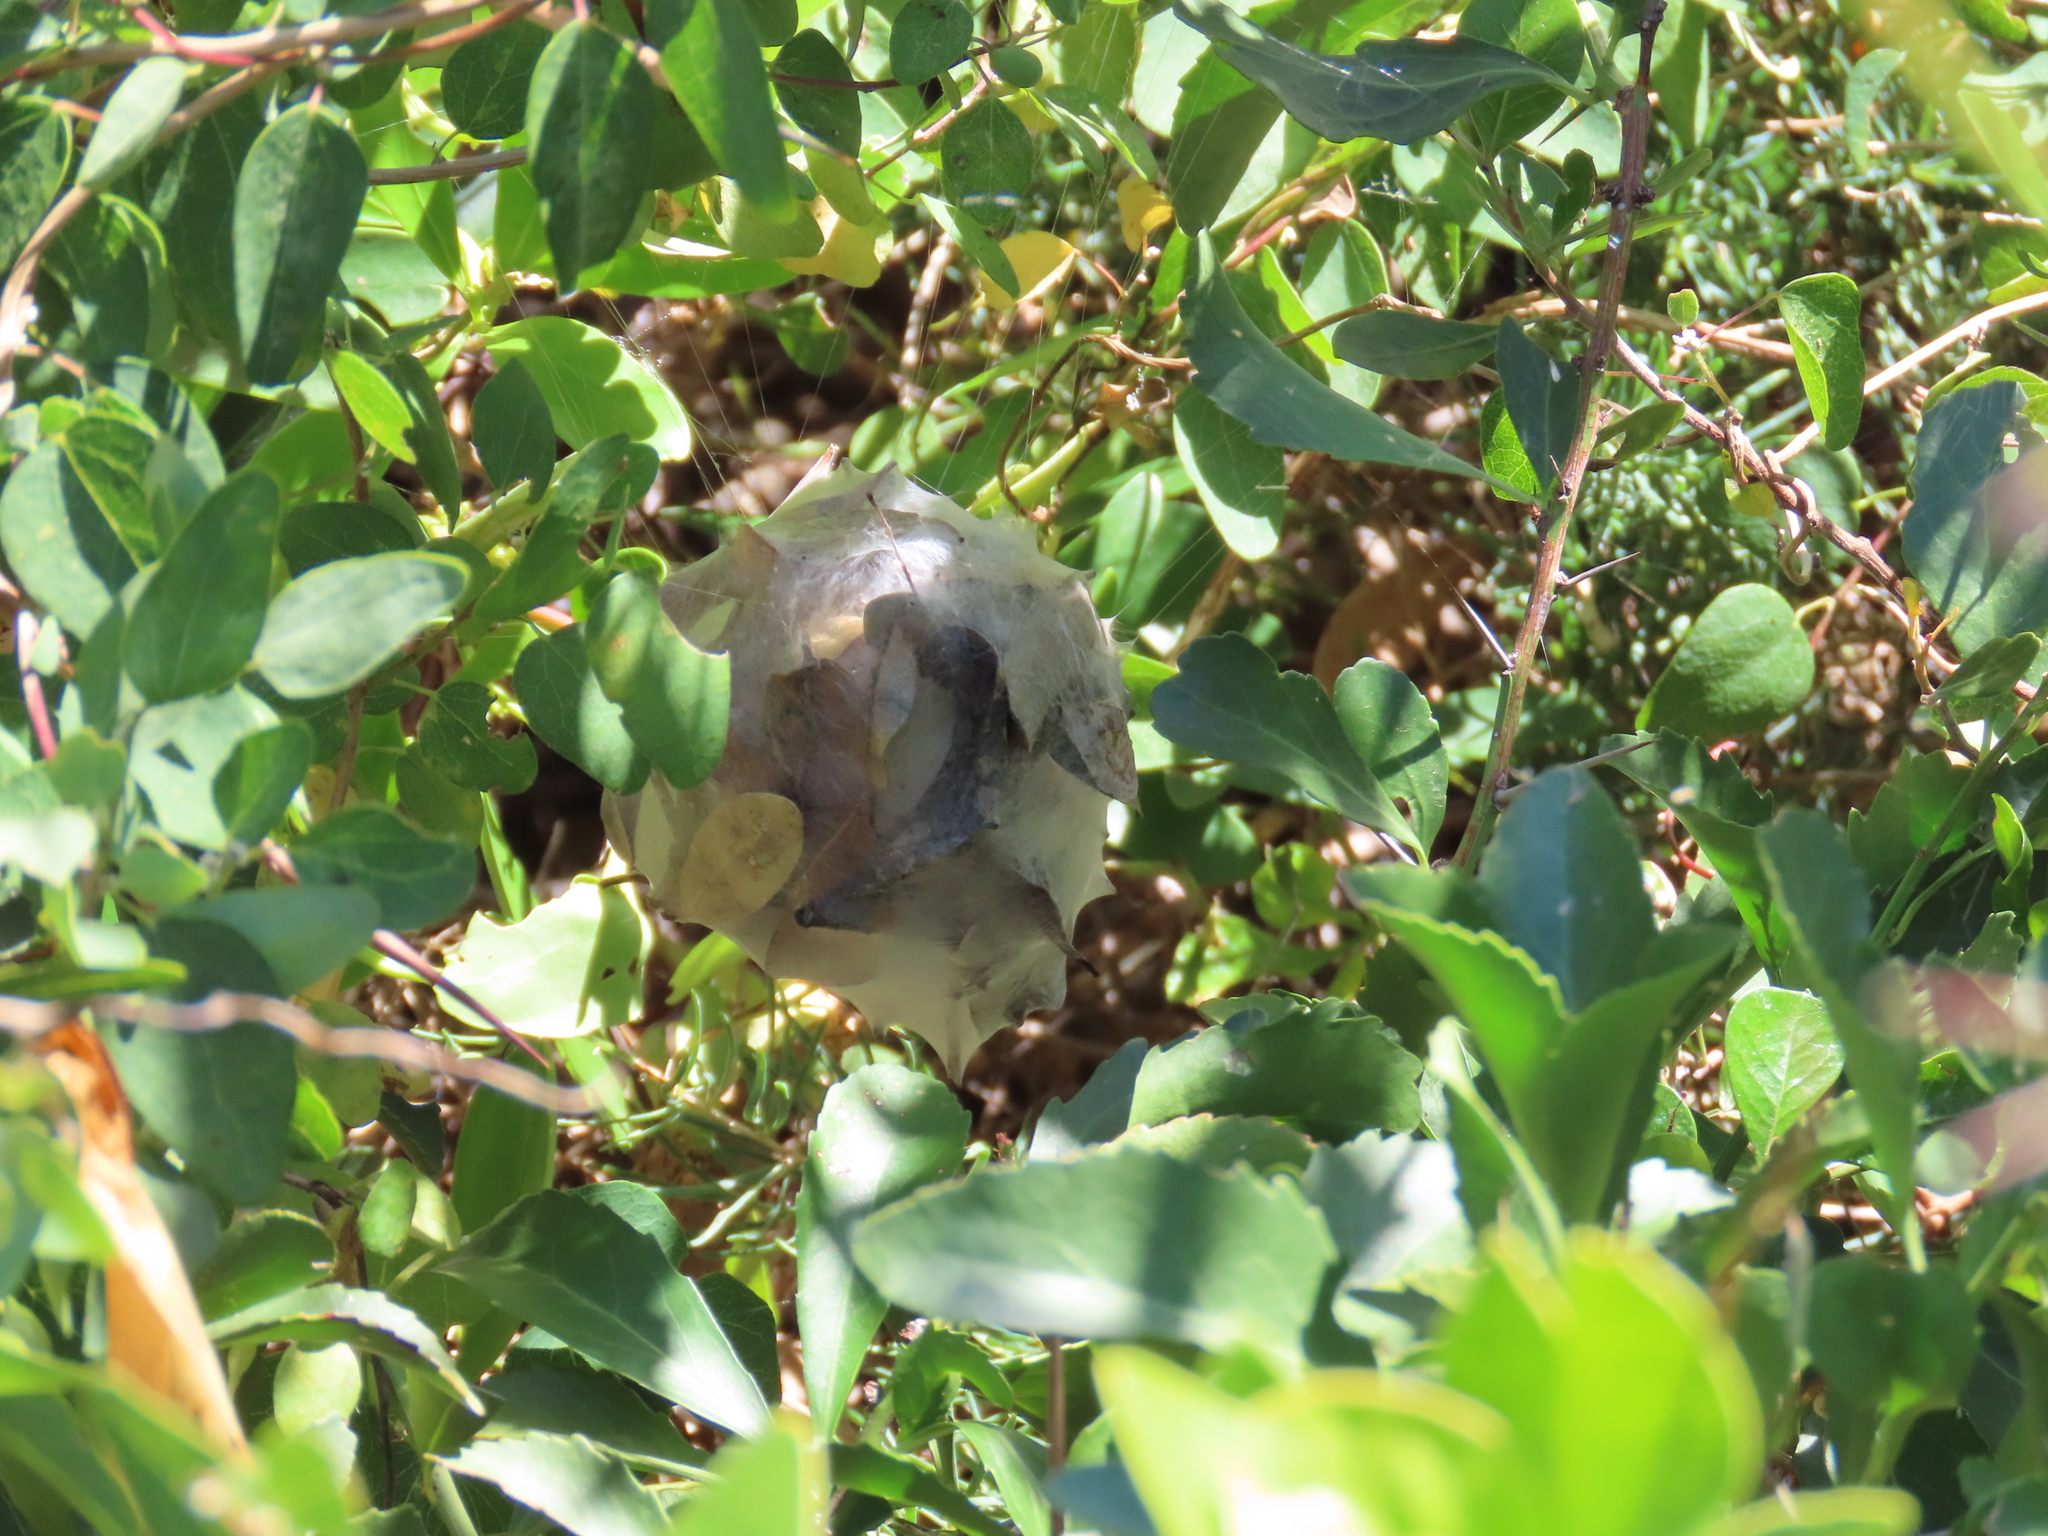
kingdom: Animalia
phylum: Arthropoda
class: Arachnida
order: Araneae
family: Sparassidae
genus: Palystes
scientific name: Palystes superciliosus
